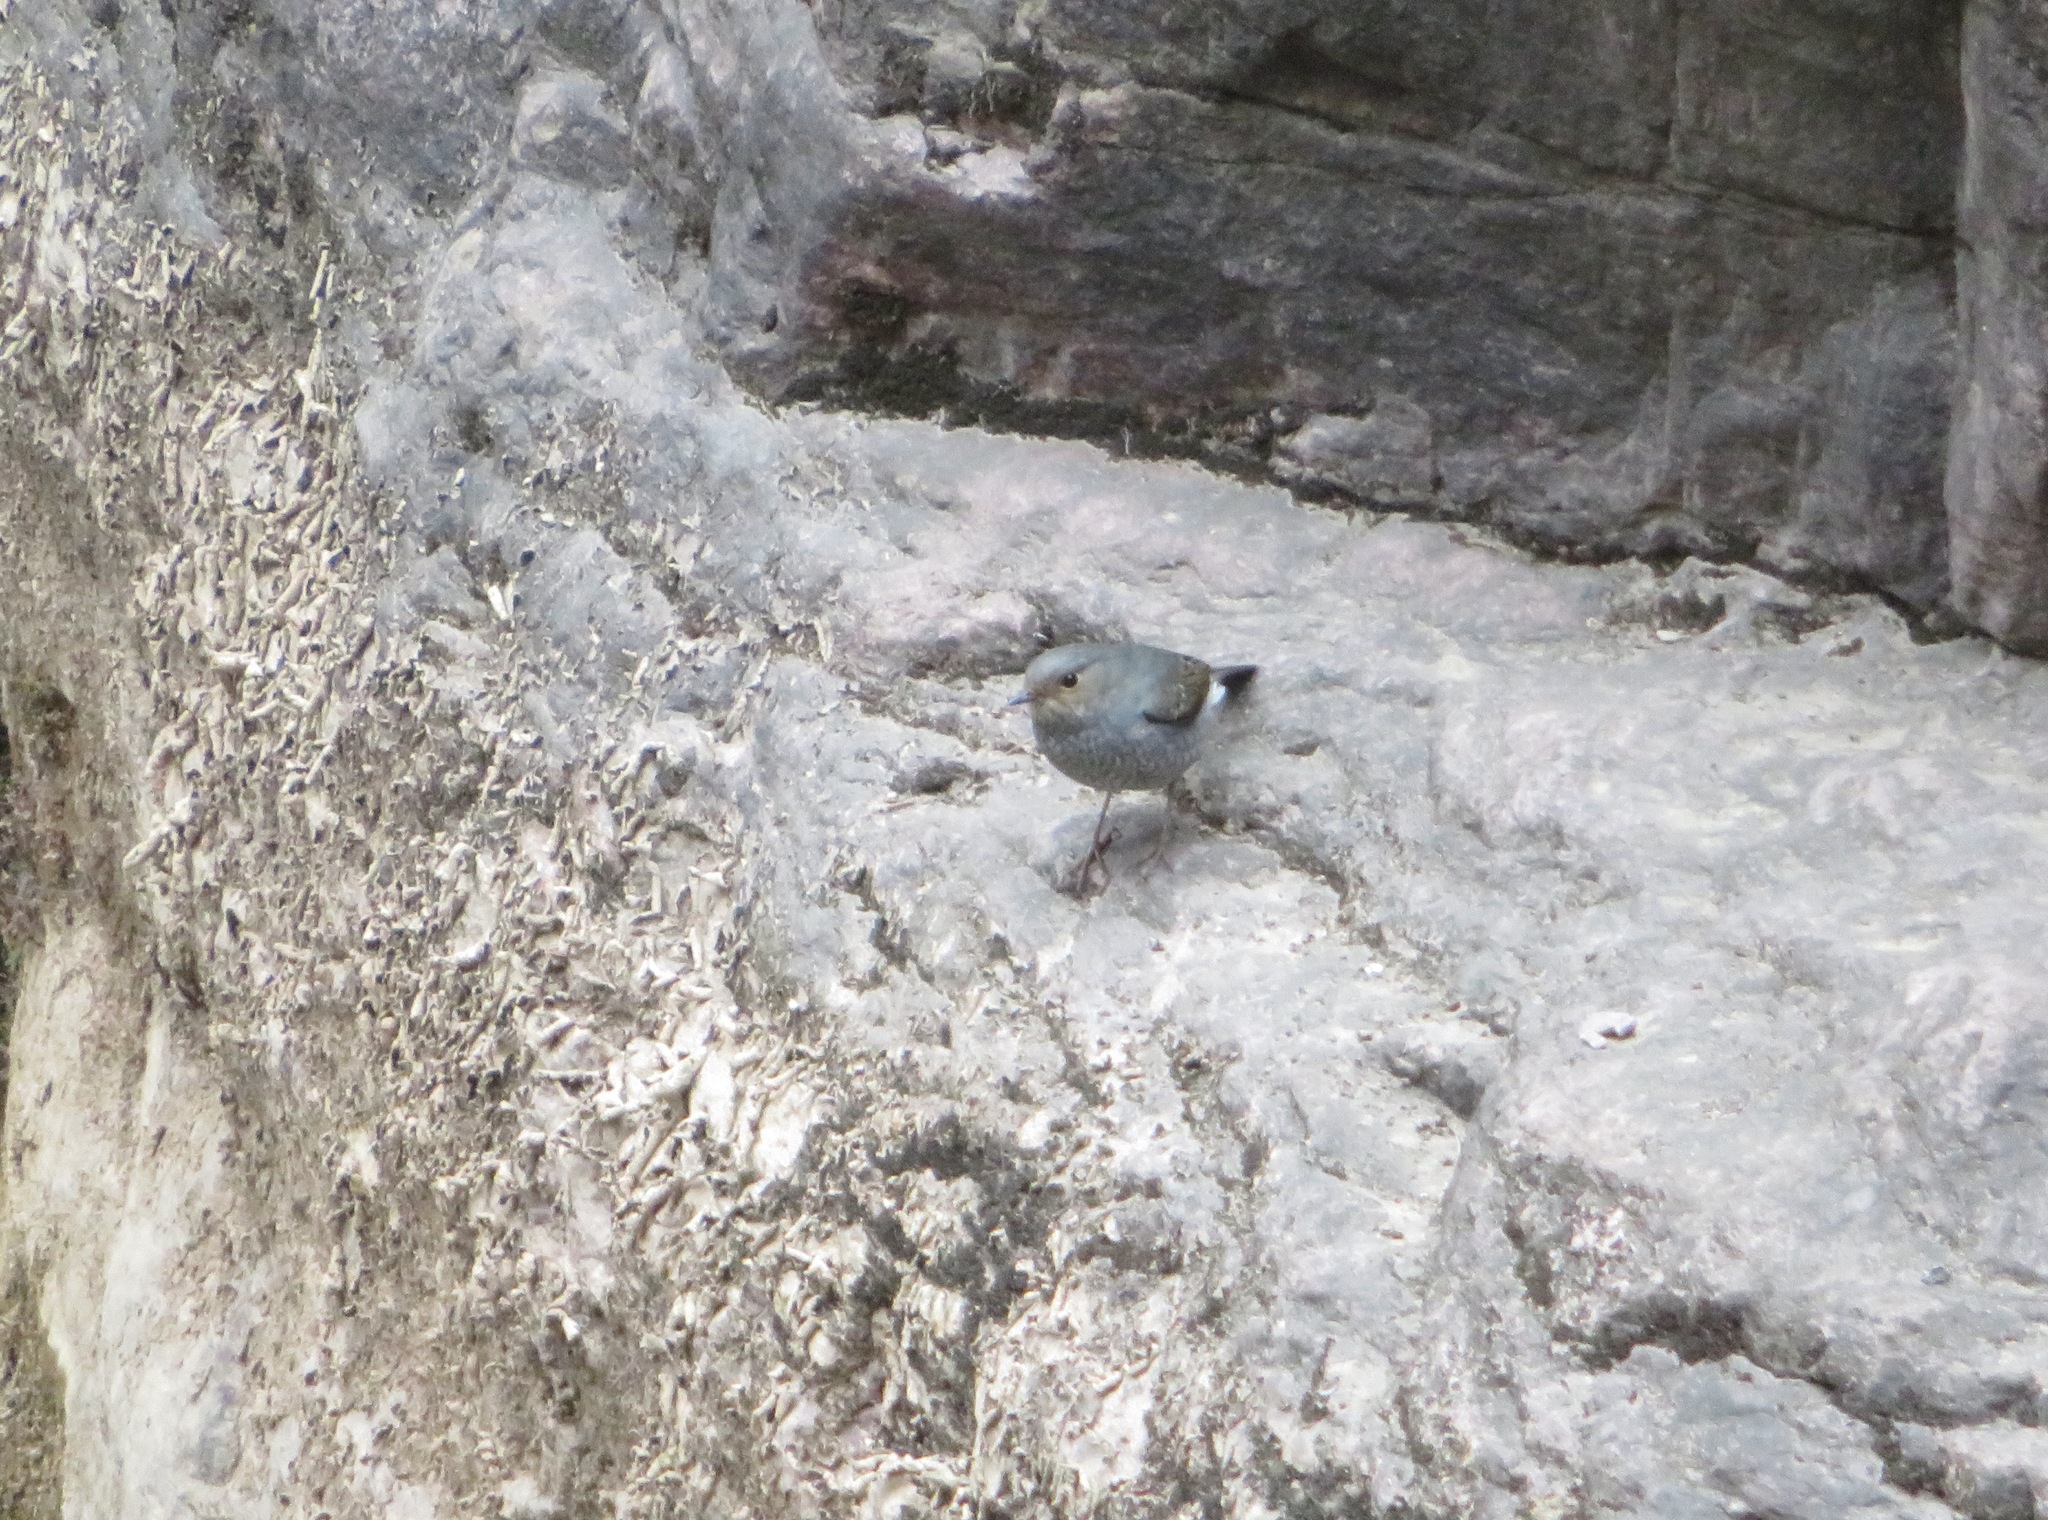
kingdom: Animalia
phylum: Chordata
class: Aves
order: Passeriformes
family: Muscicapidae
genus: Phoenicurus
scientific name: Phoenicurus fuliginosus
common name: Plumbeous water redstart
